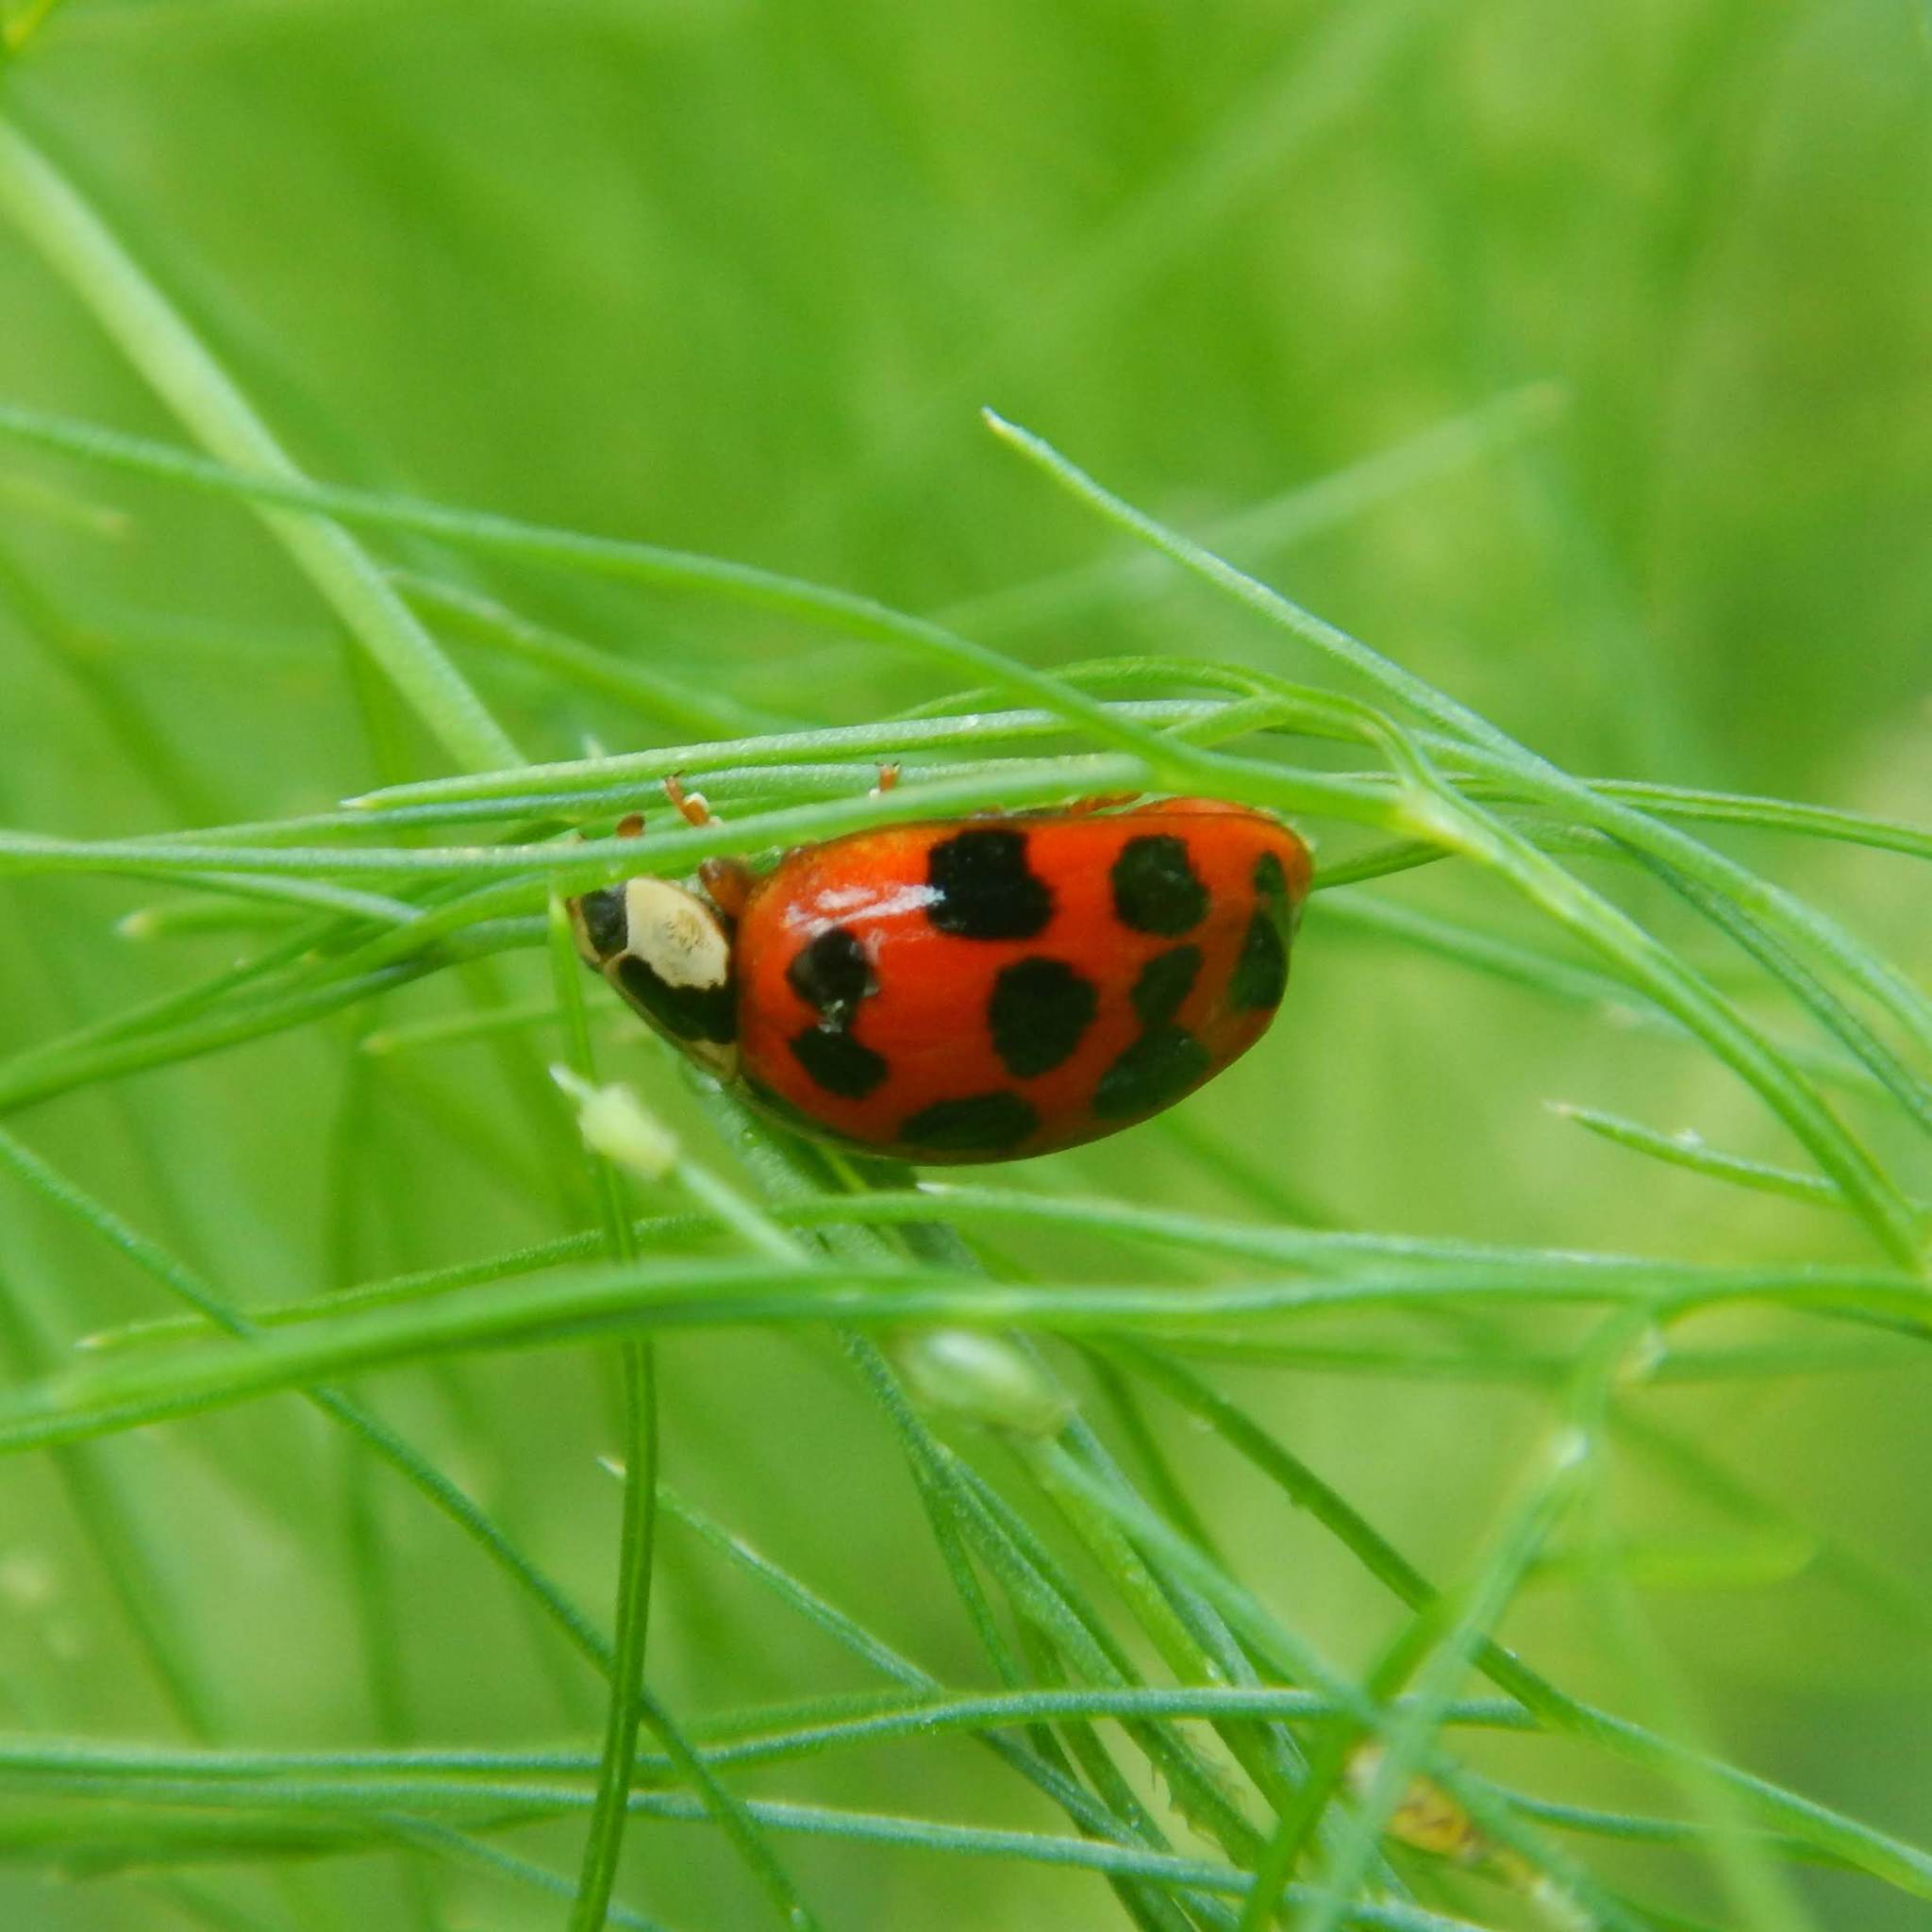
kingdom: Animalia
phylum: Arthropoda
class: Insecta
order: Coleoptera
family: Coccinellidae
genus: Harmonia
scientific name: Harmonia axyridis
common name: Harlequin ladybird
